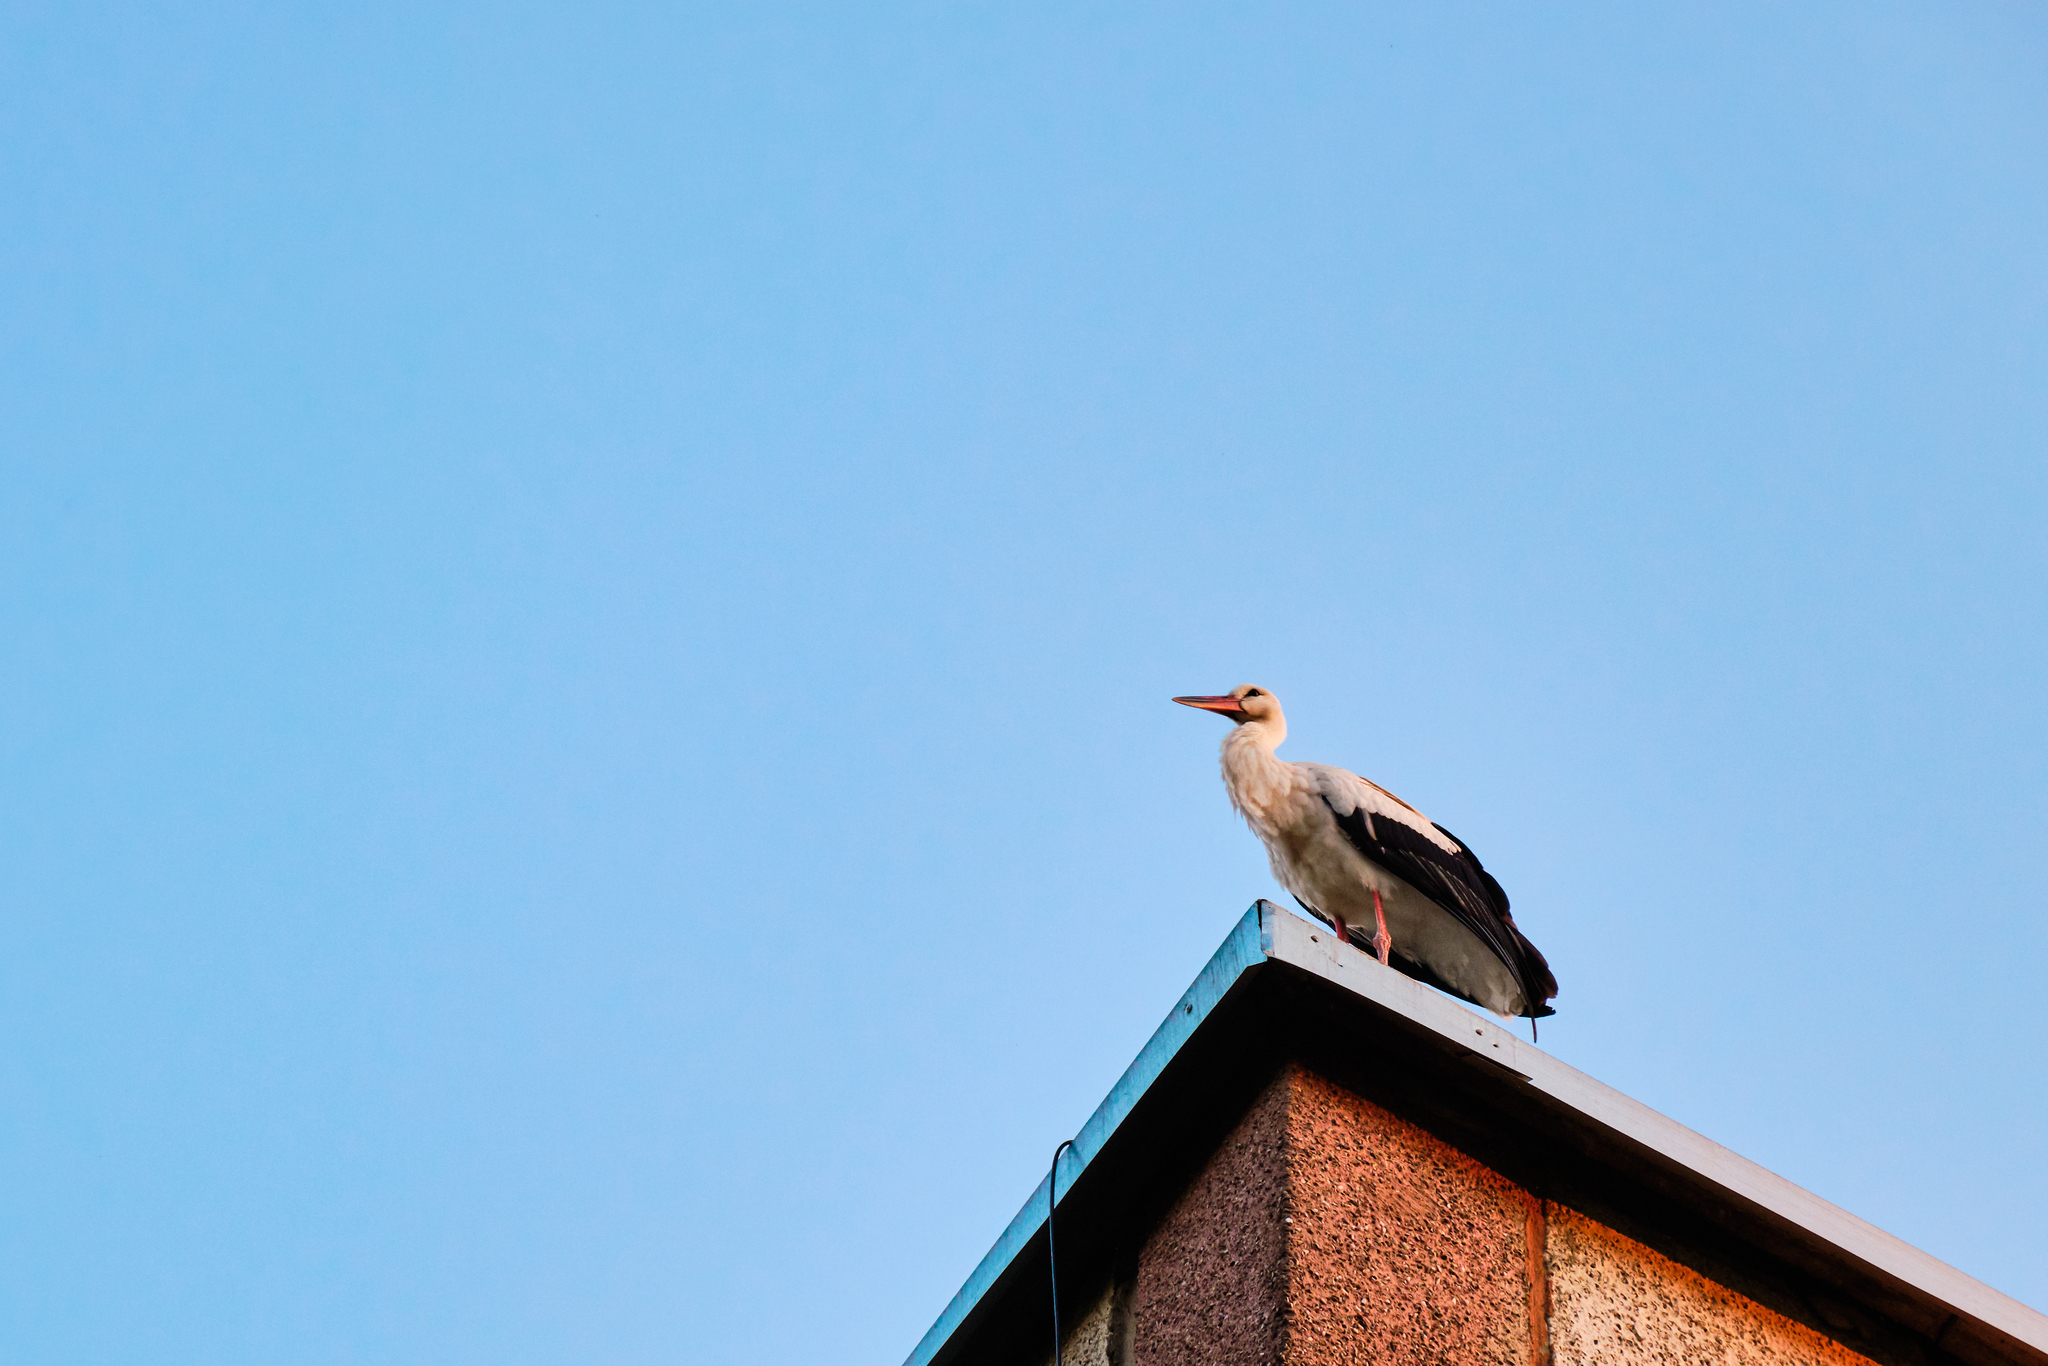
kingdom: Animalia
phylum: Chordata
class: Aves
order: Ciconiiformes
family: Ciconiidae
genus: Ciconia
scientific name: Ciconia ciconia
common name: White stork
